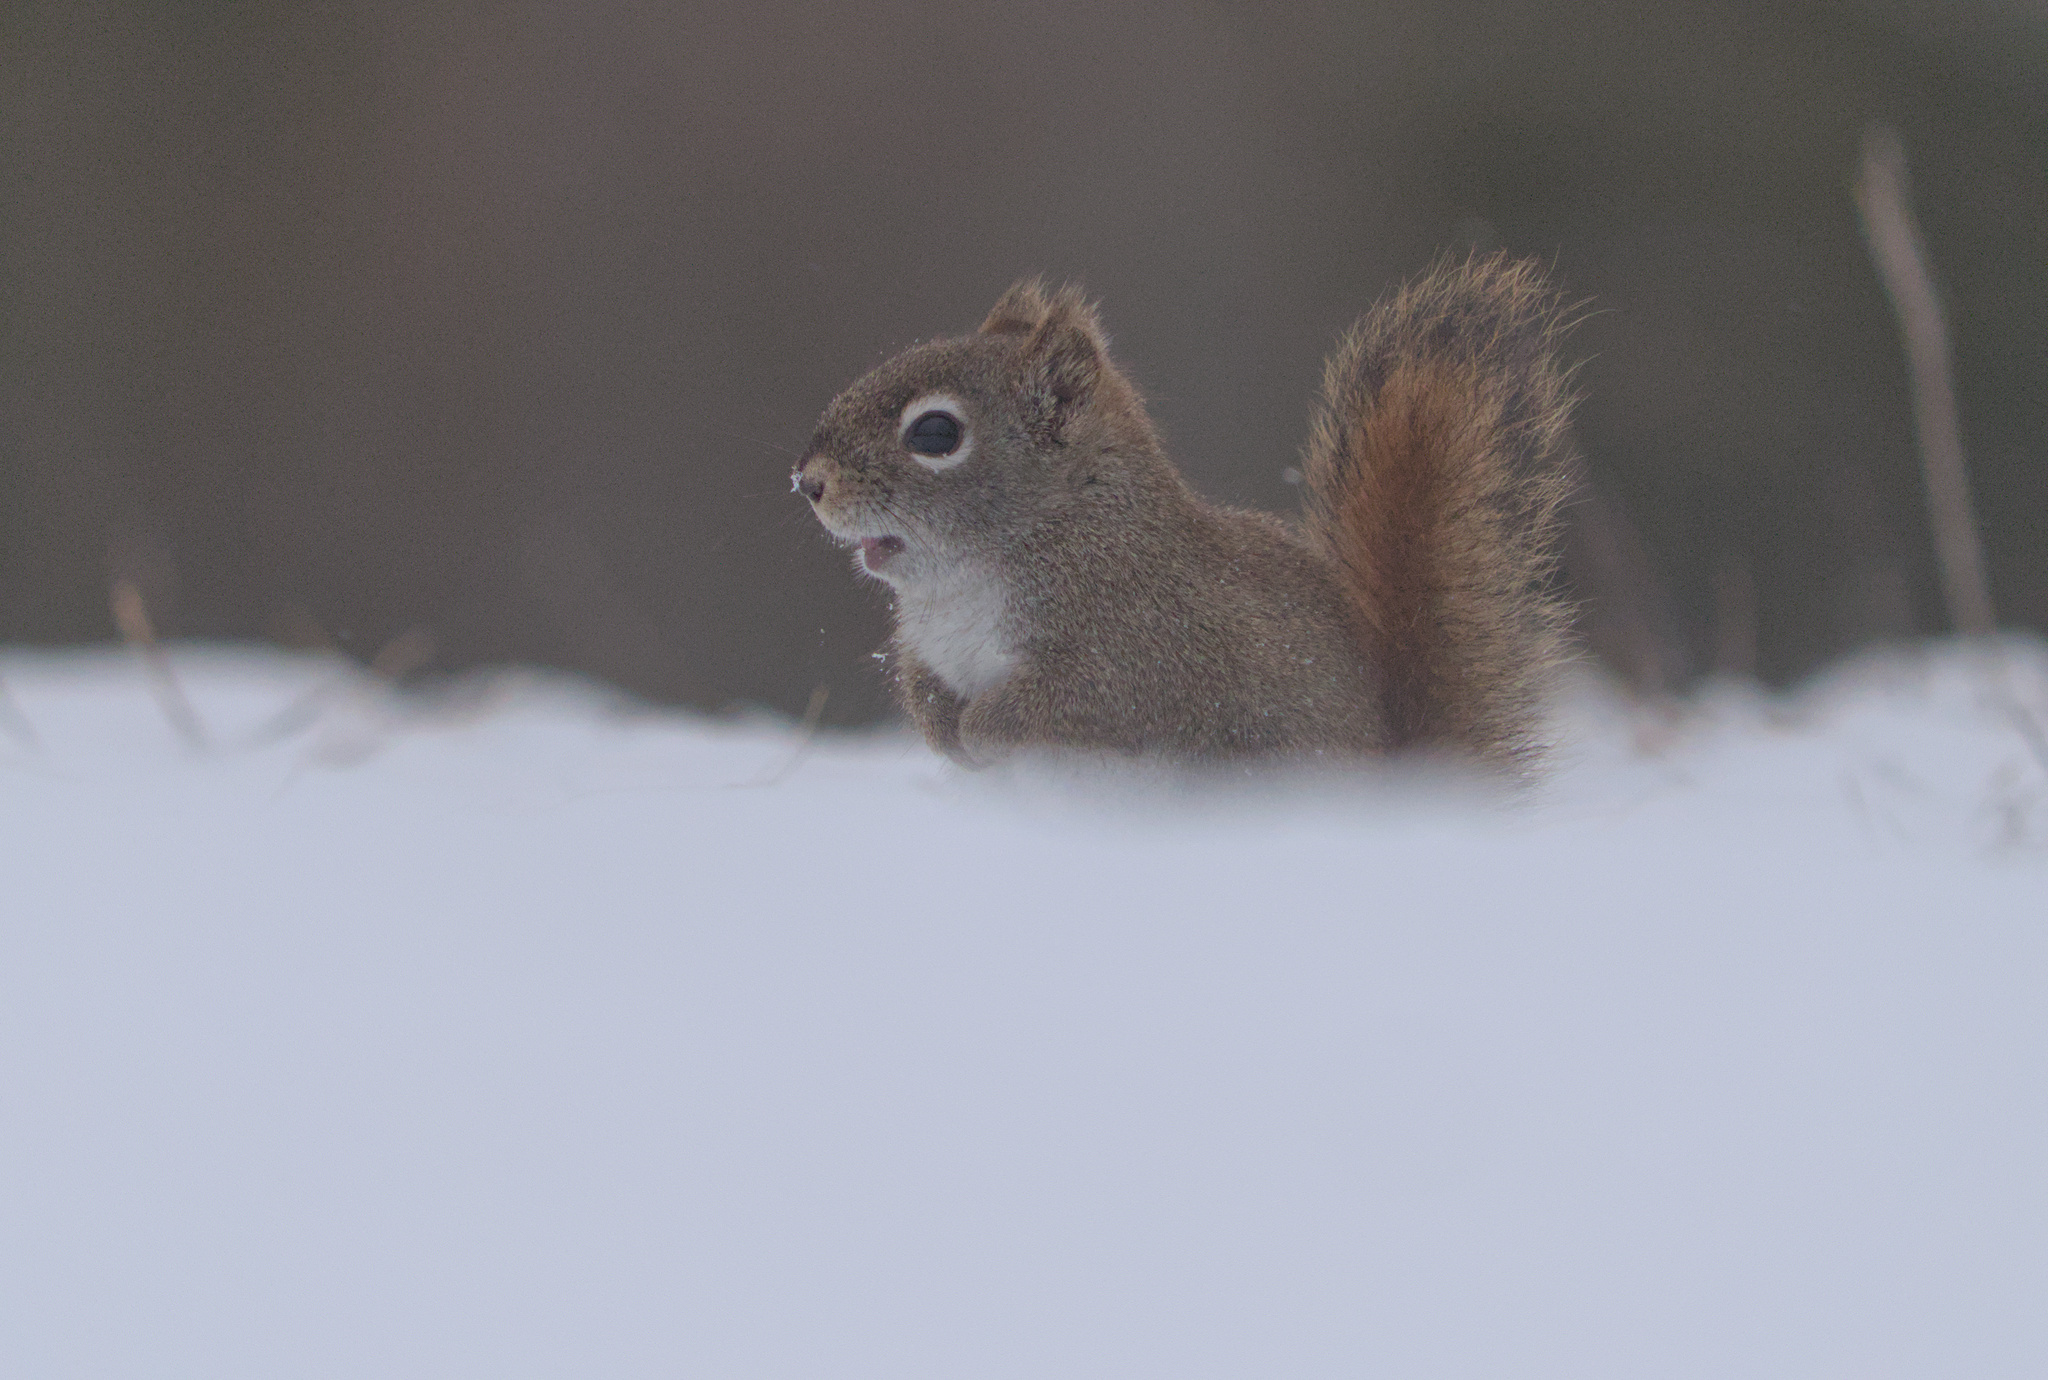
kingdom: Animalia
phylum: Chordata
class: Mammalia
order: Rodentia
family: Sciuridae
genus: Tamiasciurus
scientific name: Tamiasciurus hudsonicus
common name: Red squirrel
